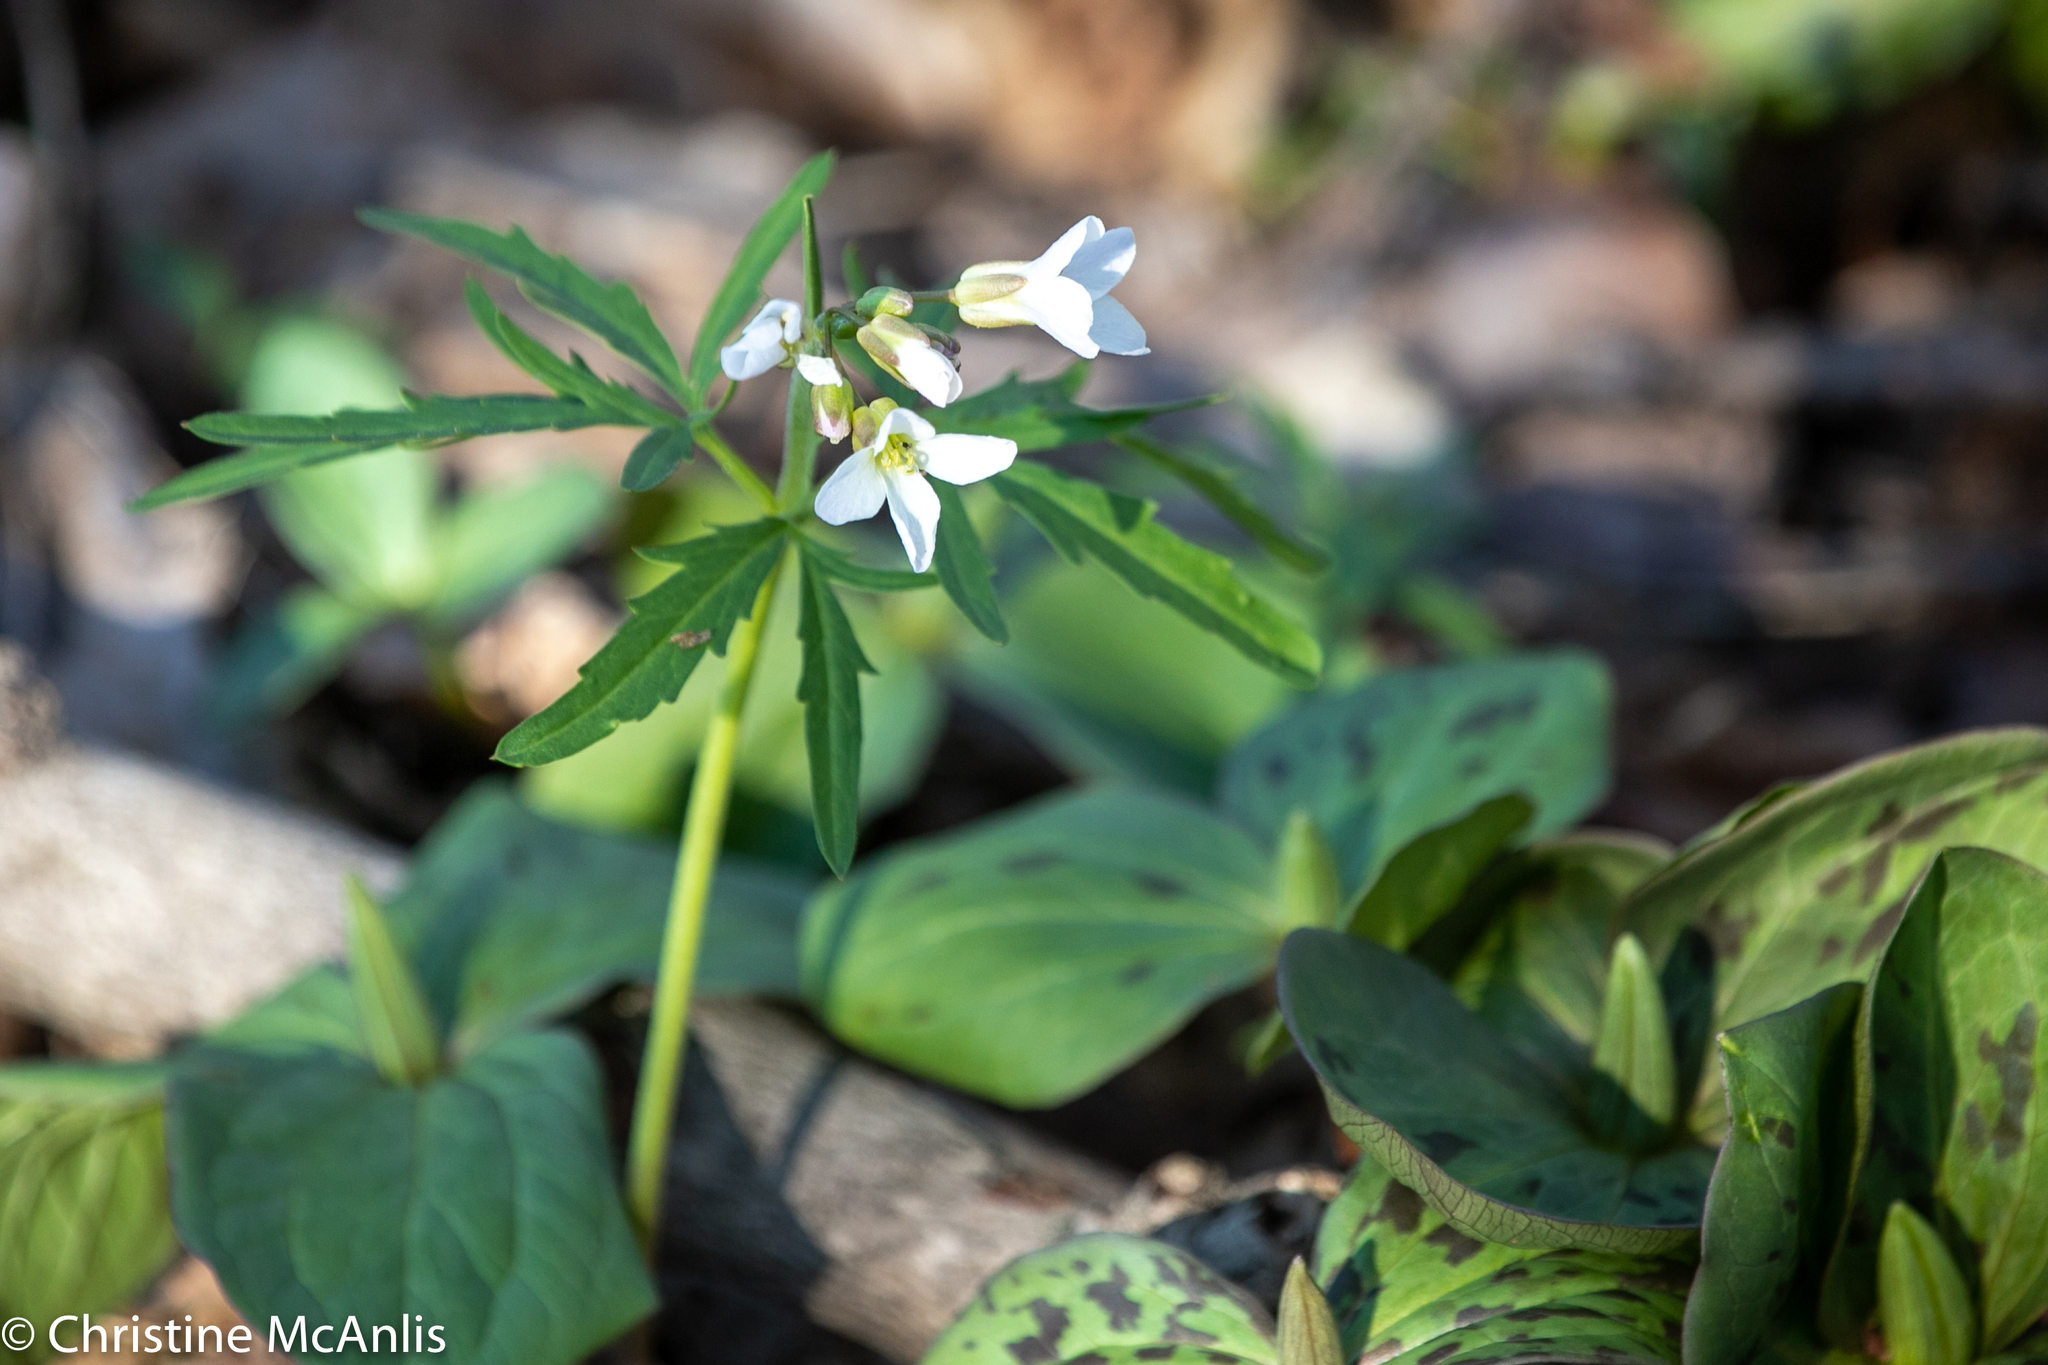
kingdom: Plantae
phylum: Tracheophyta
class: Magnoliopsida
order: Brassicales
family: Brassicaceae
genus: Cardamine
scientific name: Cardamine concatenata
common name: Cut-leaf toothcup
